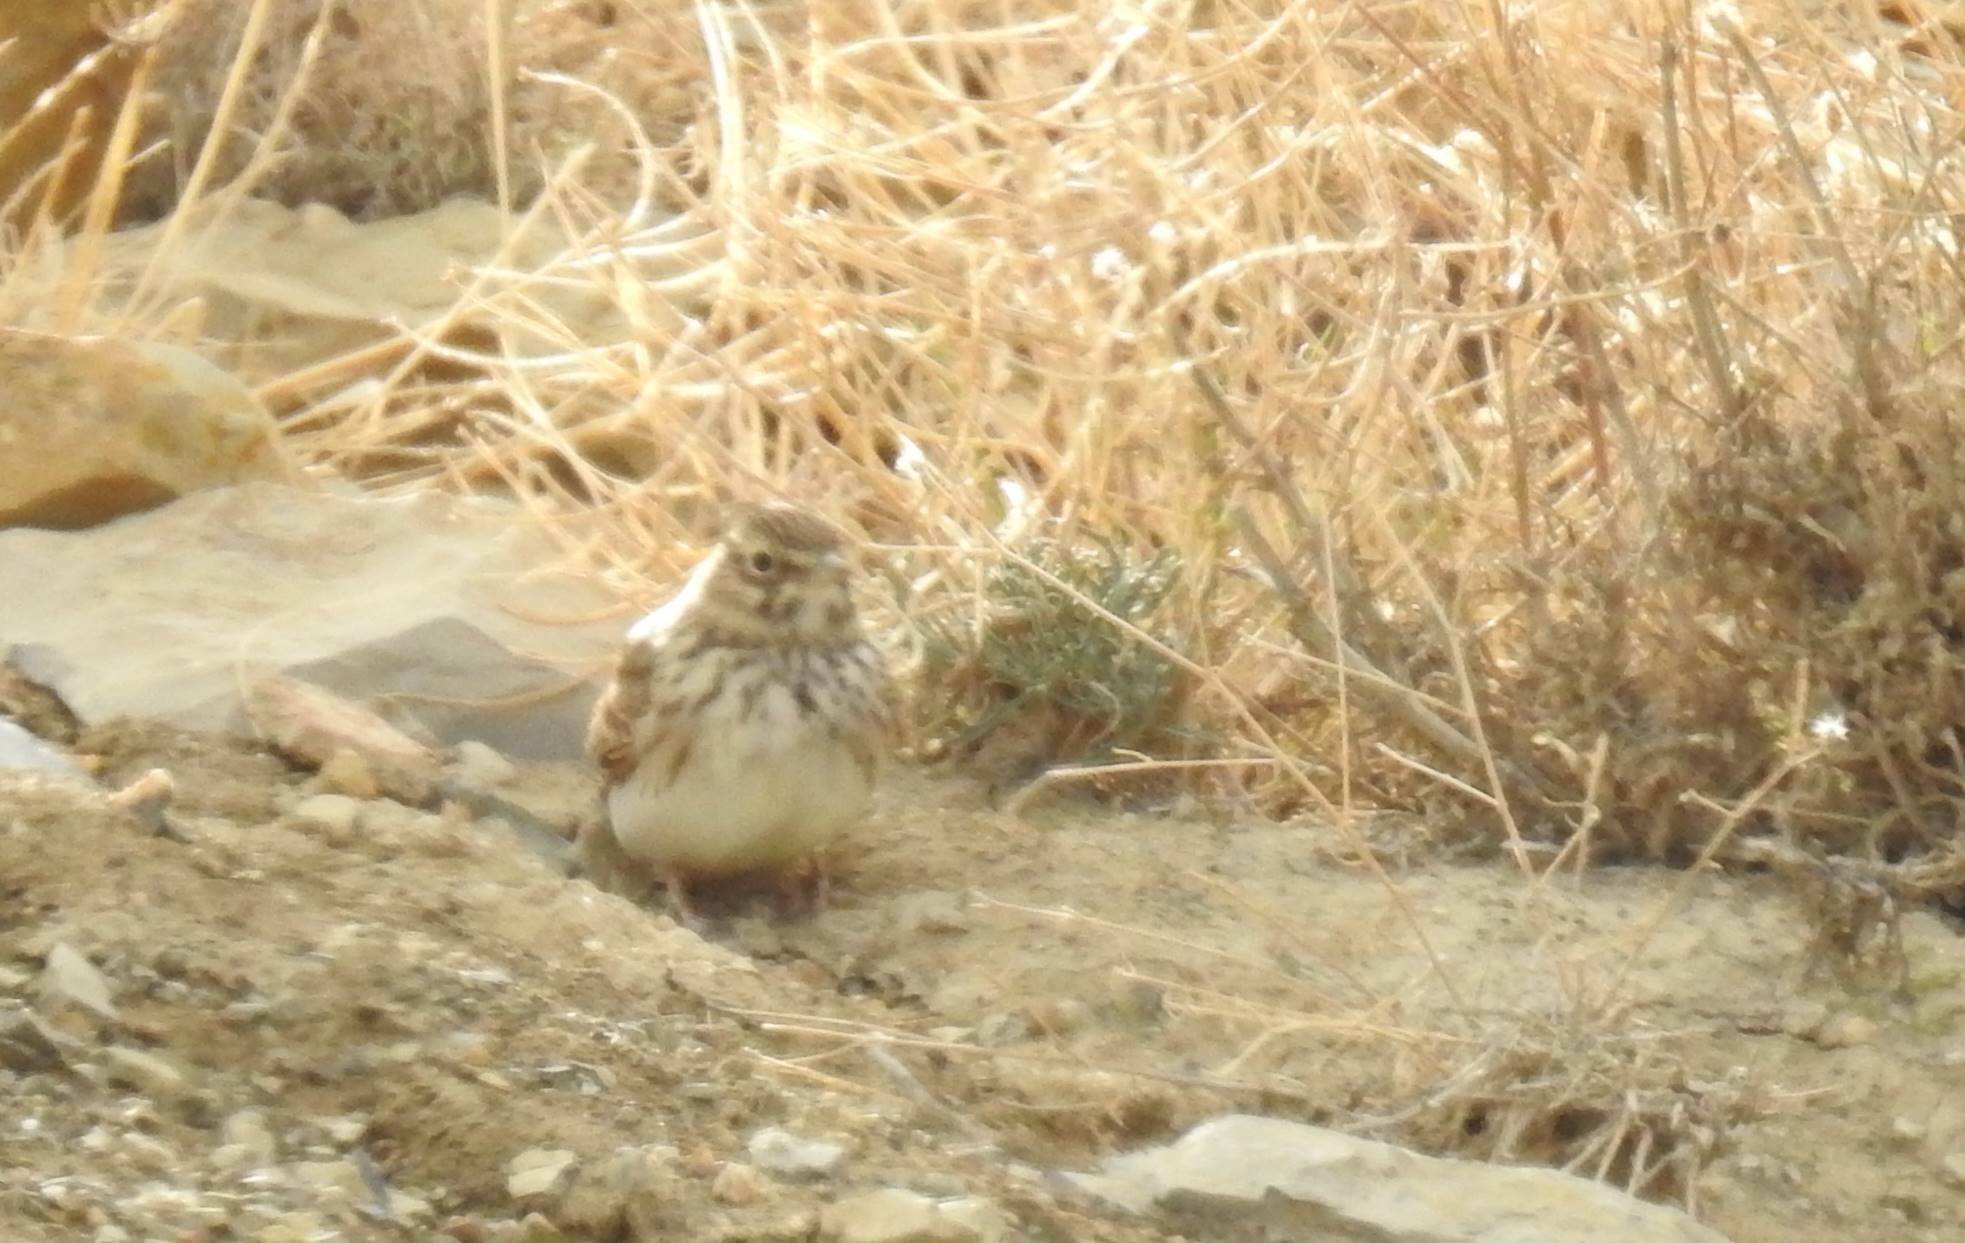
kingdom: Animalia
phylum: Chordata
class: Aves
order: Passeriformes
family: Alaudidae
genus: Galerida
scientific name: Galerida theklae
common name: Thekla lark
